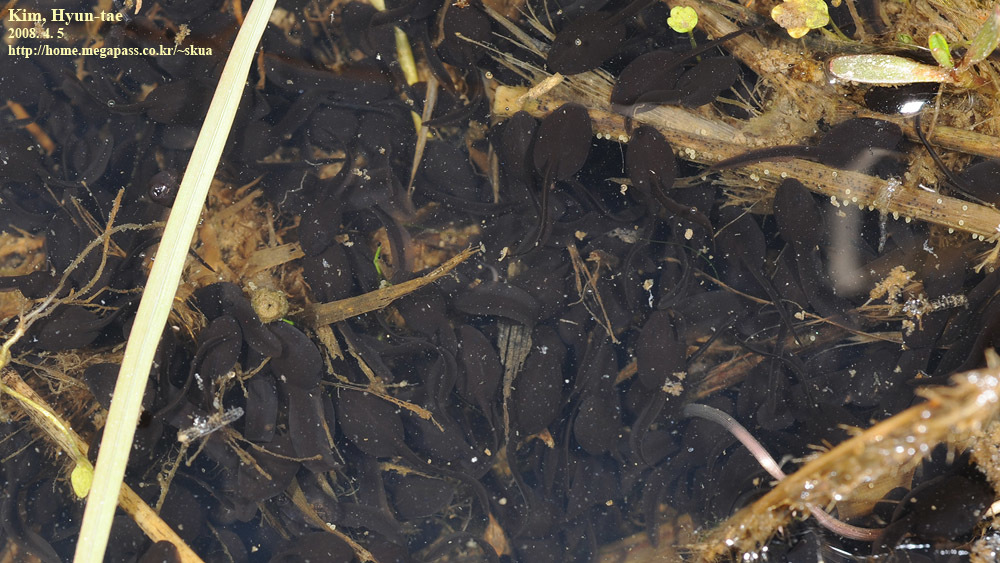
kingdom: Animalia
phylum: Chordata
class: Amphibia
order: Anura
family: Bufonidae
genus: Bufo
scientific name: Bufo gargarizans
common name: Asiatic toad
